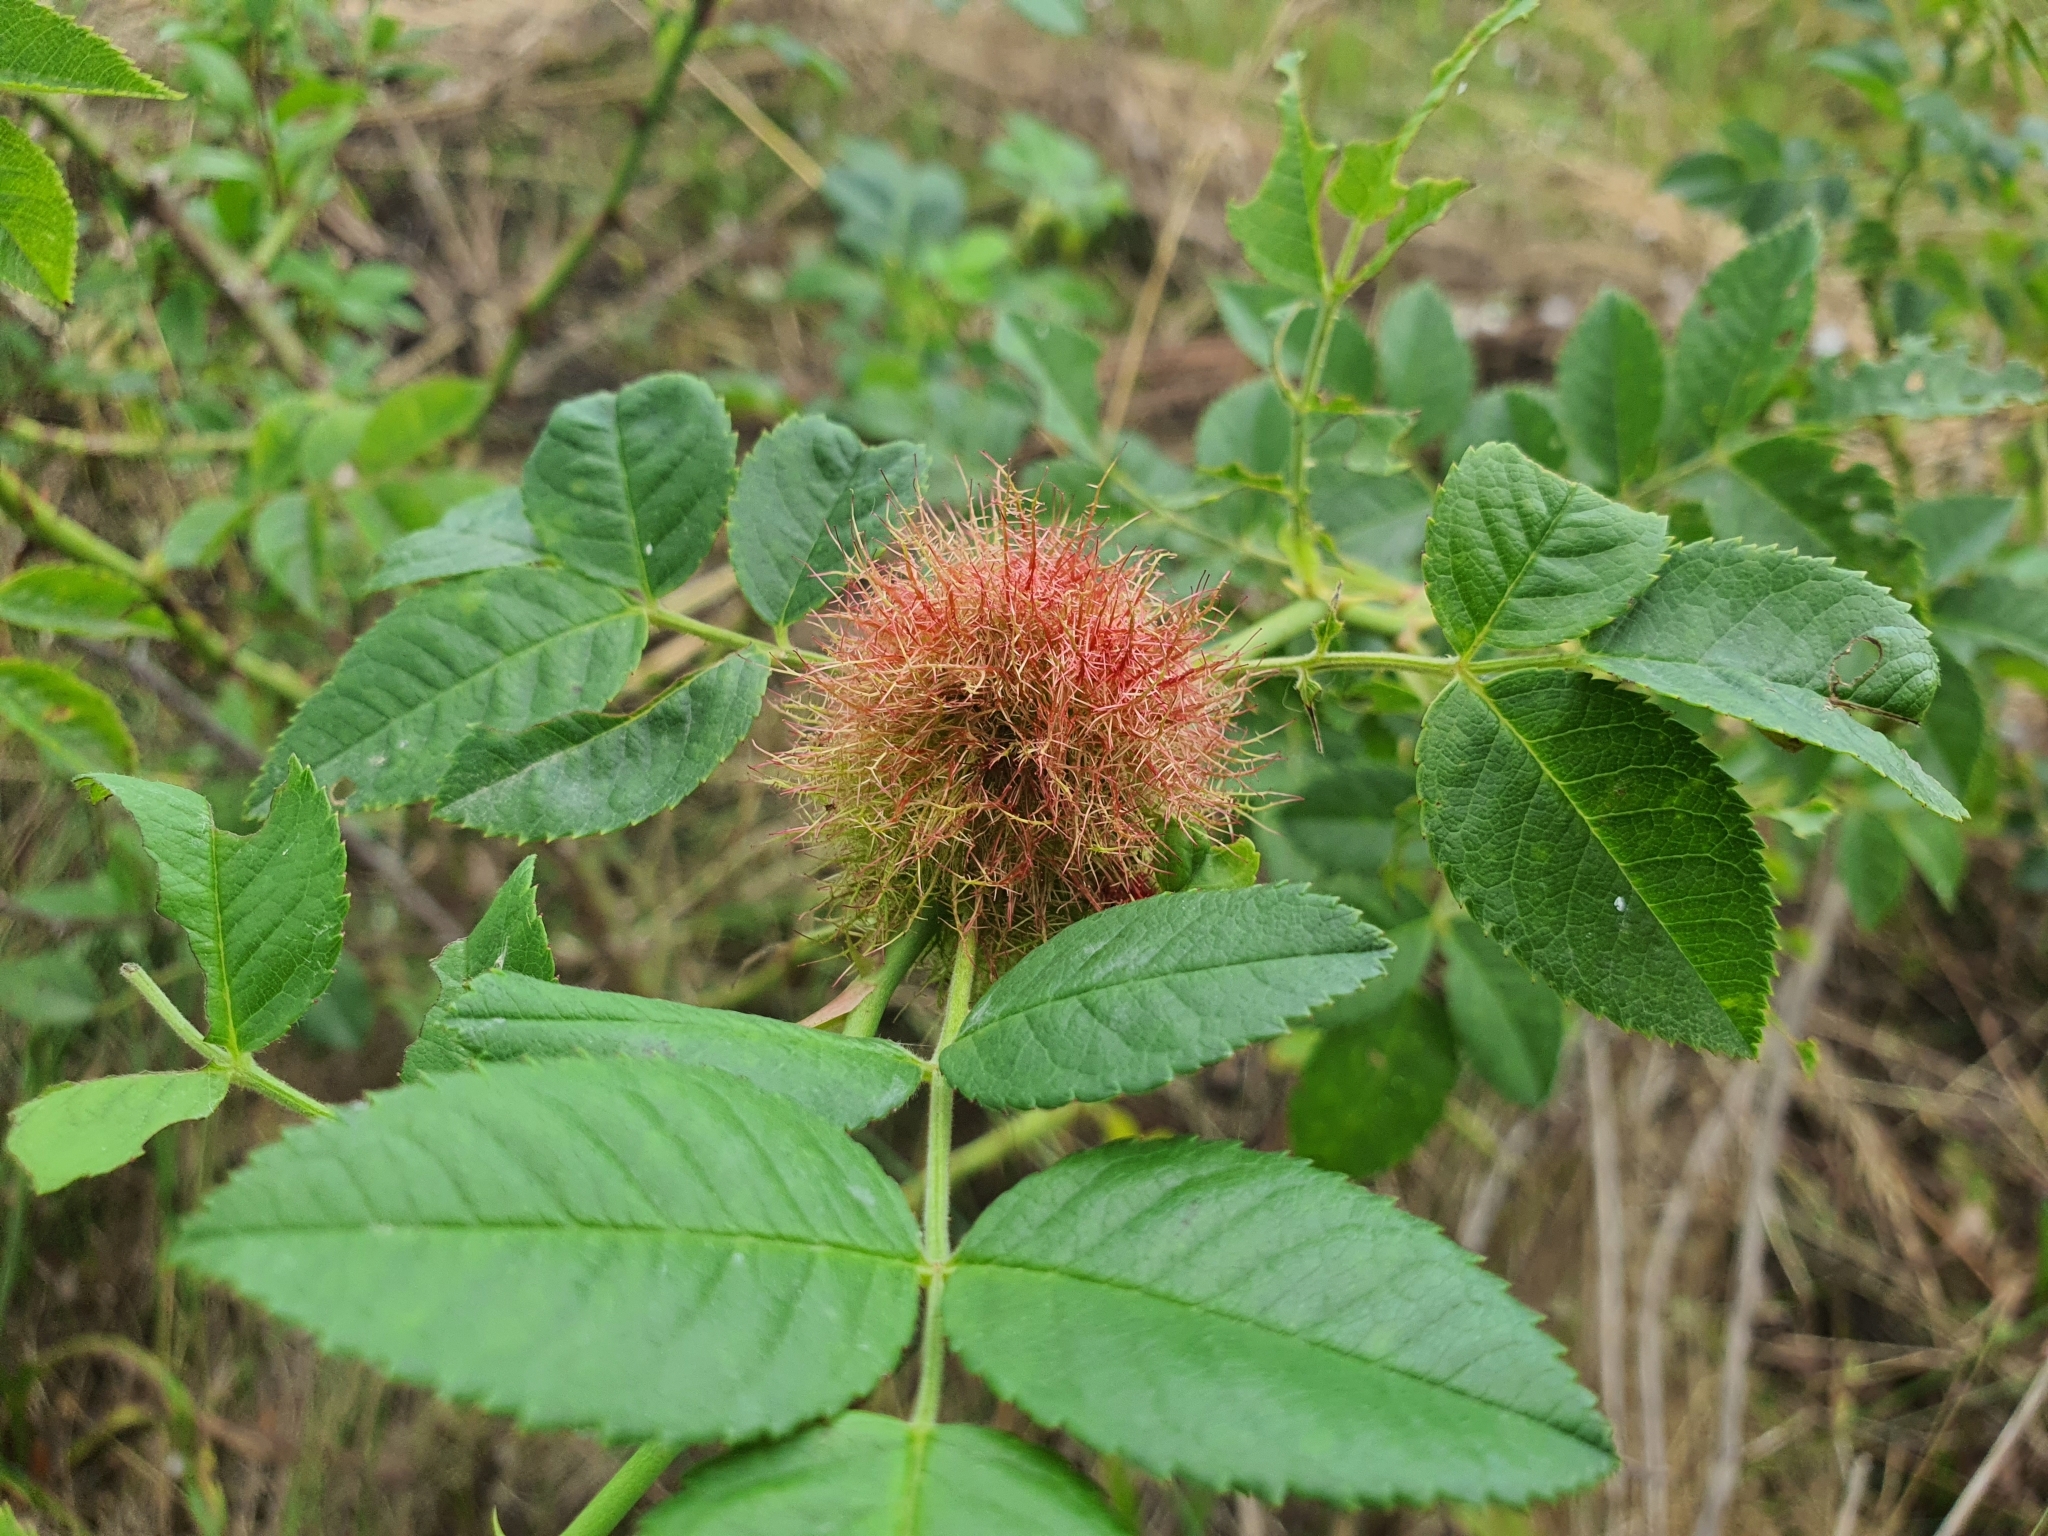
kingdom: Animalia
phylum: Arthropoda
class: Insecta
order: Hymenoptera
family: Cynipidae
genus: Diplolepis
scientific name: Diplolepis rosae
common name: Bedeguar gall
